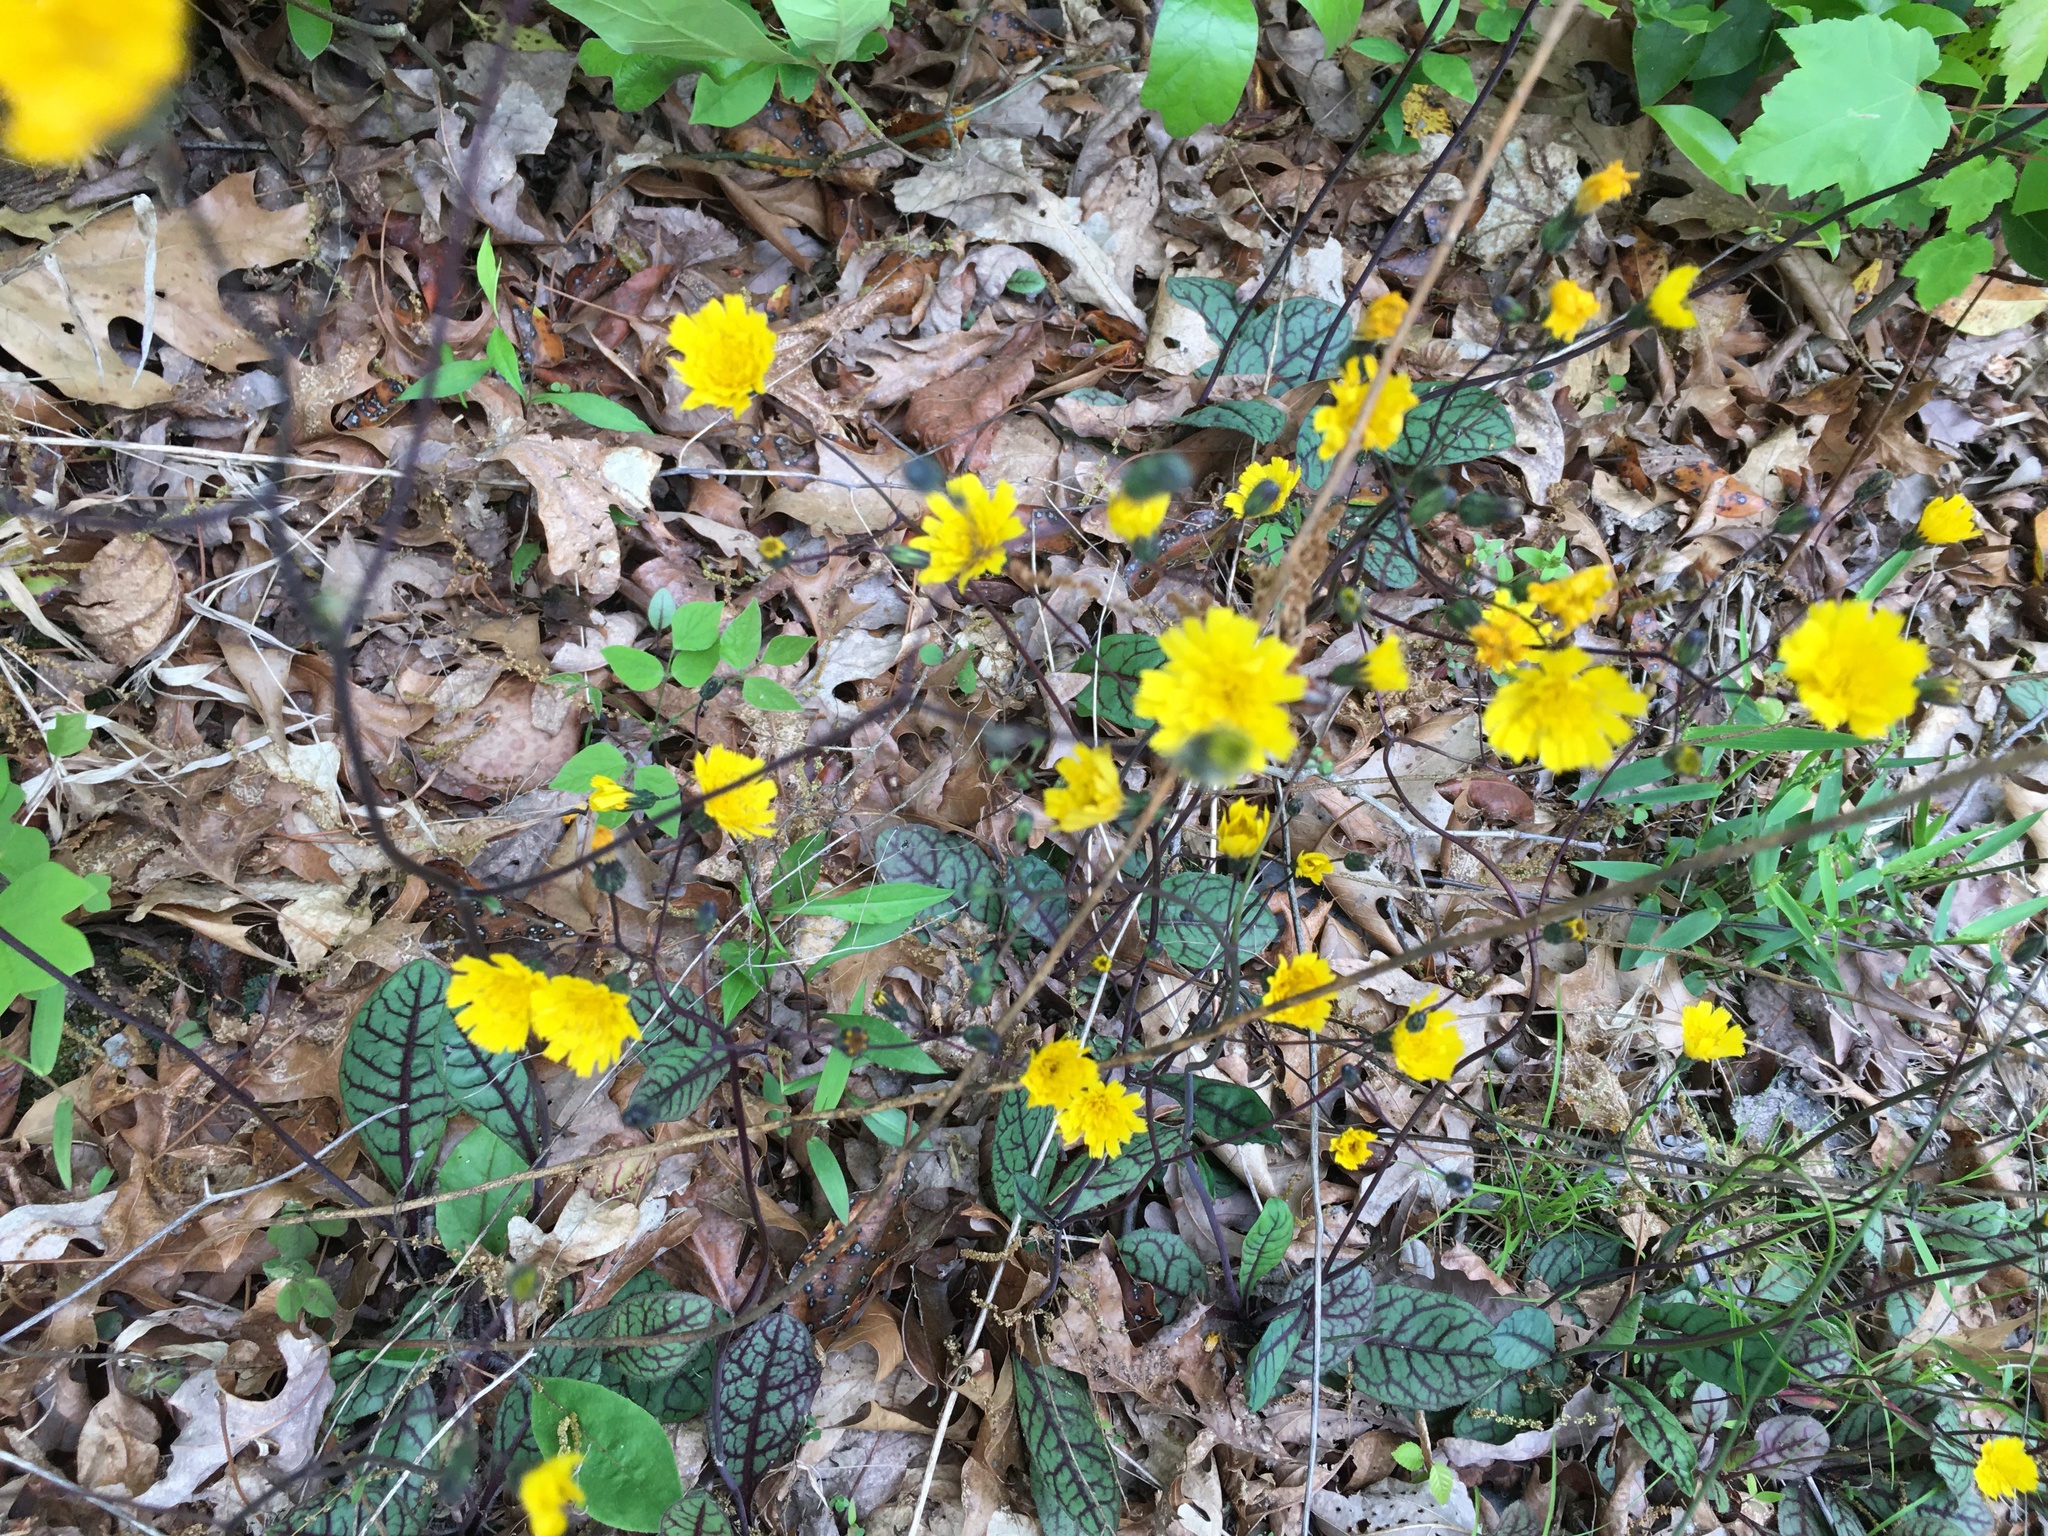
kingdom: Plantae
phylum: Tracheophyta
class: Magnoliopsida
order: Asterales
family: Asteraceae
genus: Hieracium
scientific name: Hieracium venosum
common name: Rattlesnake hawkweed
